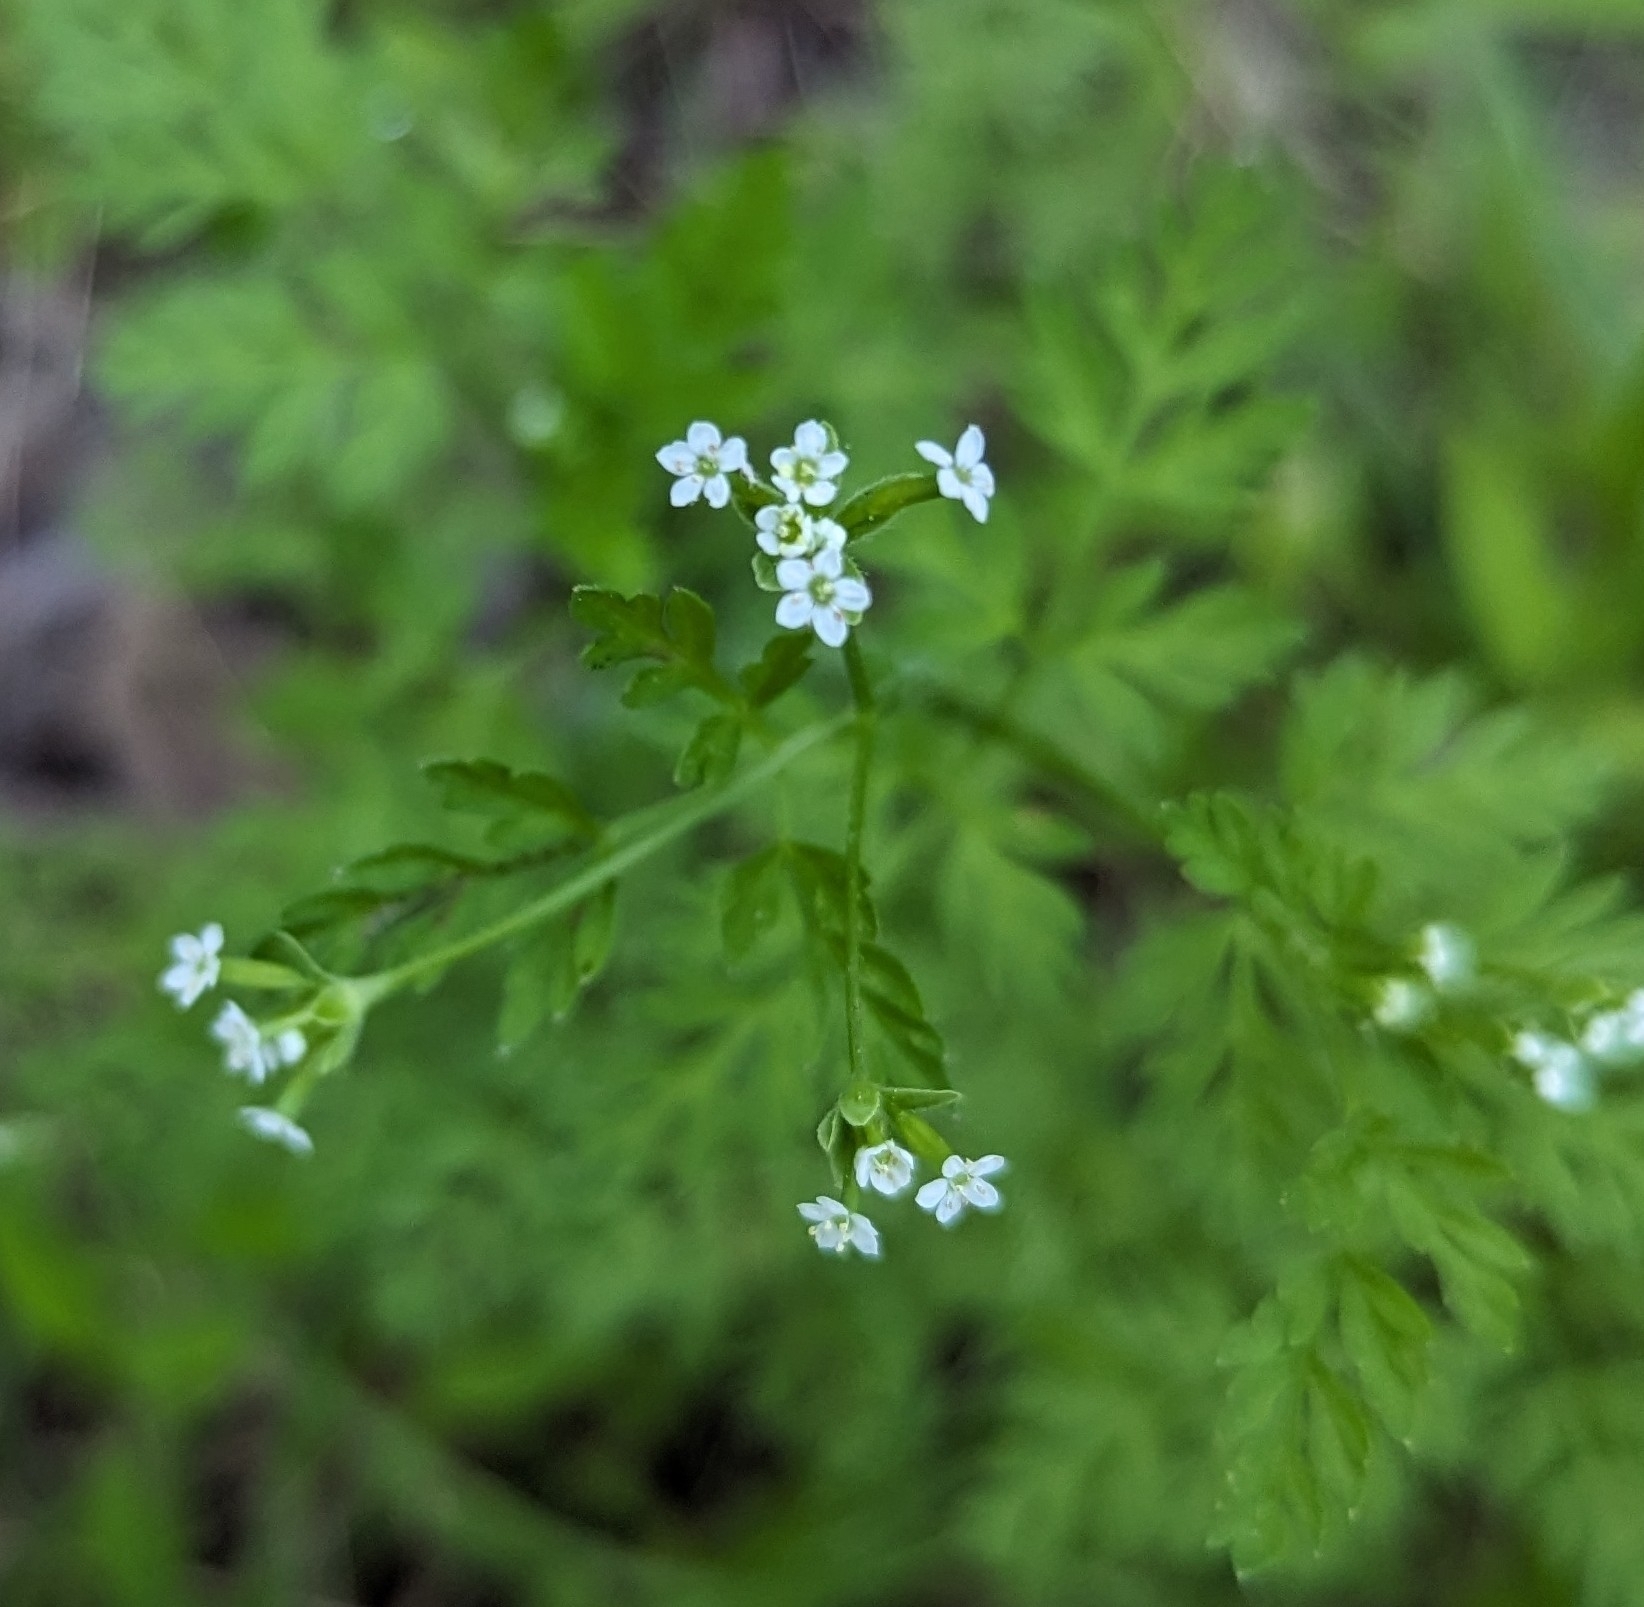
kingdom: Plantae
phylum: Tracheophyta
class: Magnoliopsida
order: Apiales
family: Apiaceae
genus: Chaerophyllum
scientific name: Chaerophyllum tainturieri
